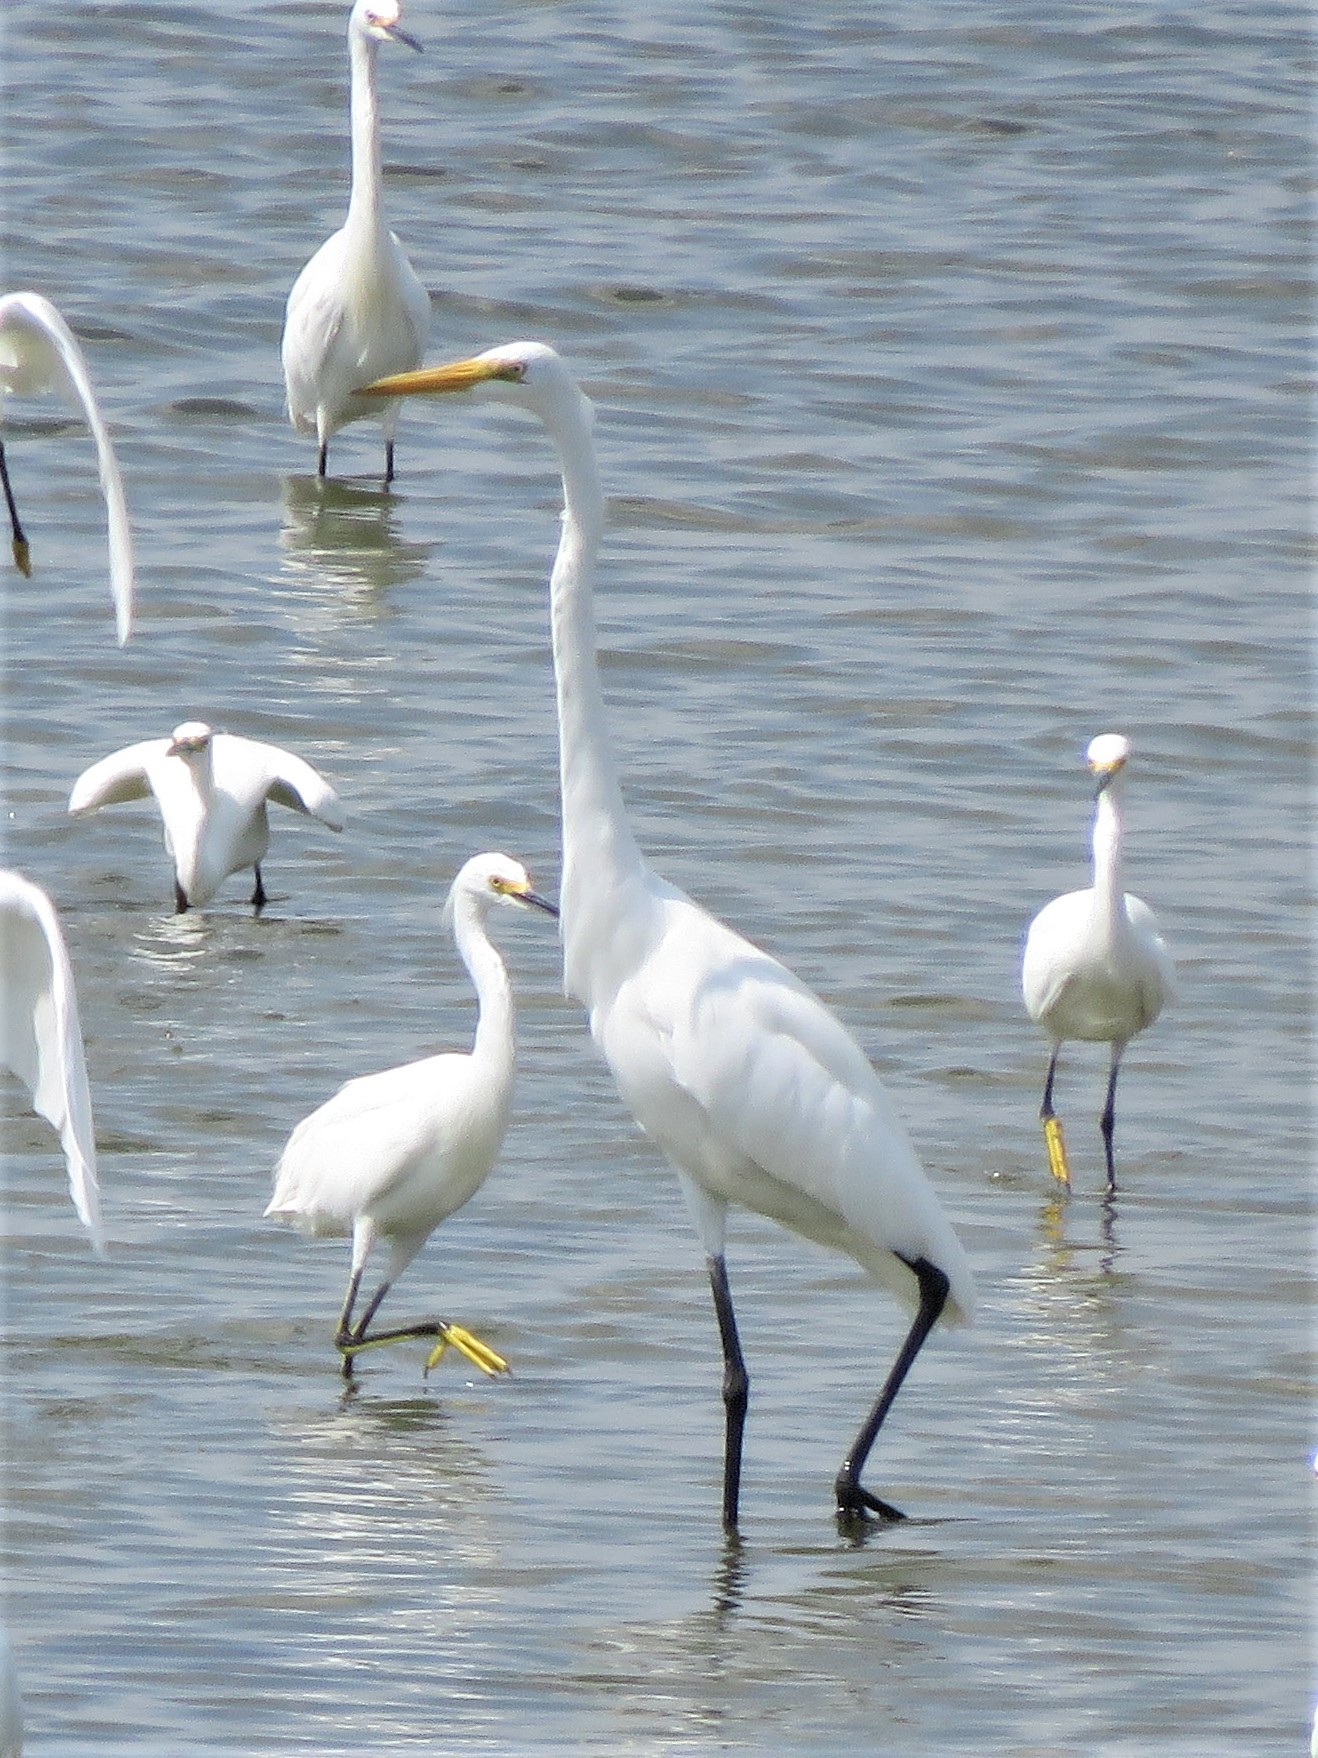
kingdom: Animalia
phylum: Chordata
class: Aves
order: Pelecaniformes
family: Ardeidae
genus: Ardea
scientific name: Ardea alba
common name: Great egret
